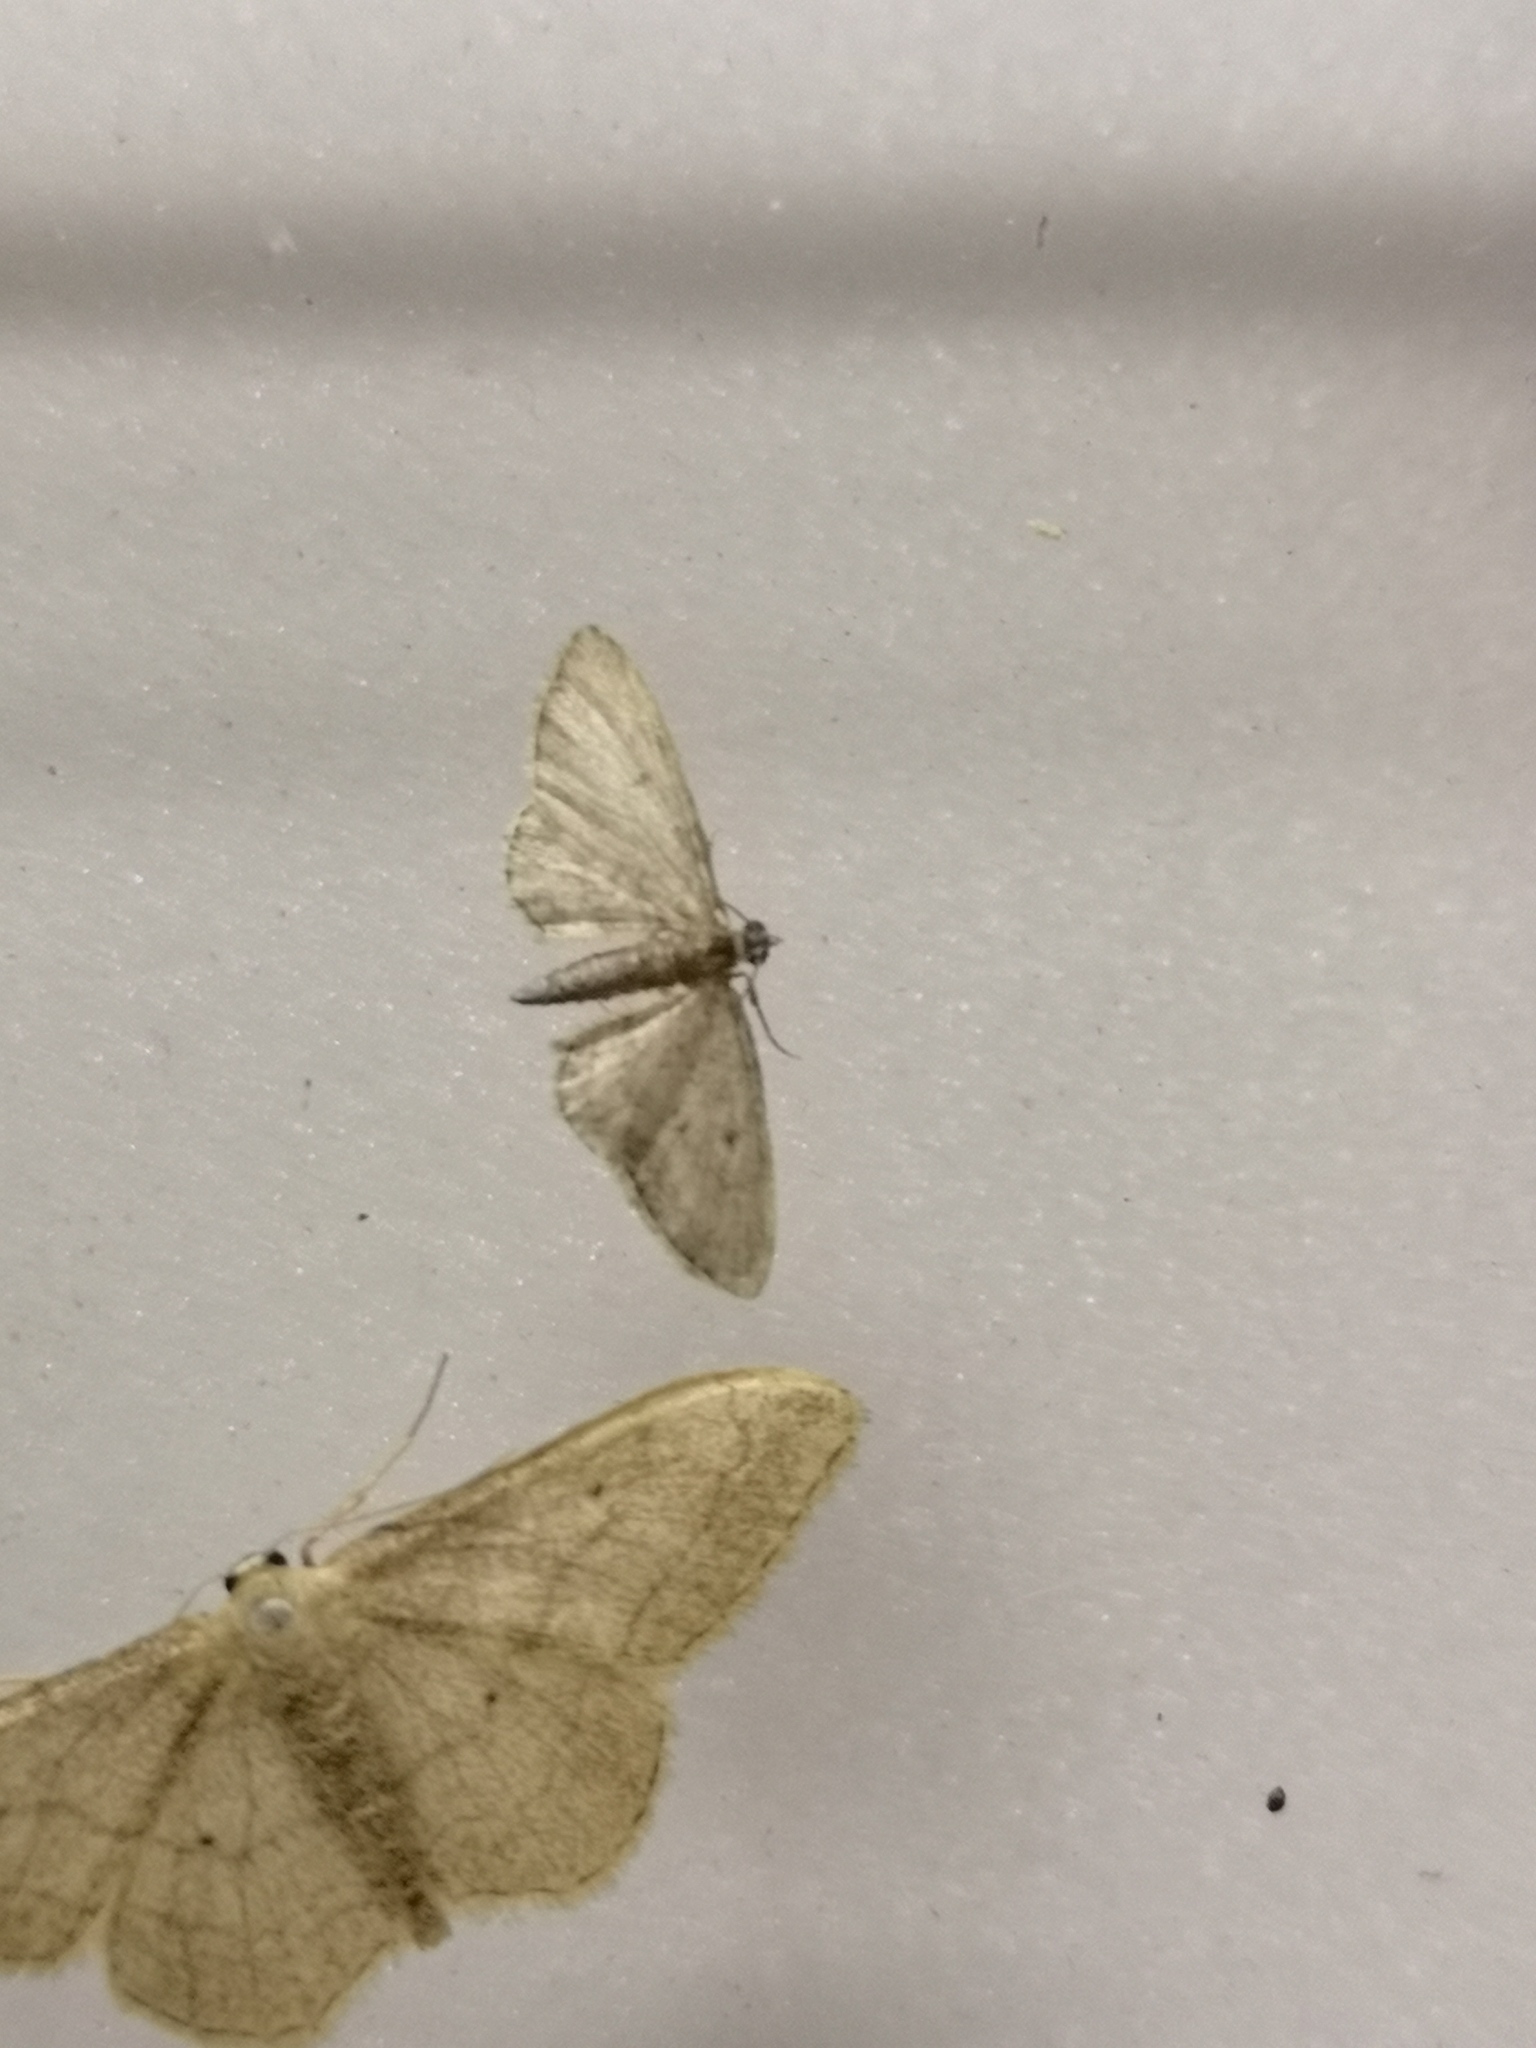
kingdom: Animalia
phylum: Arthropoda
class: Insecta
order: Lepidoptera
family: Geometridae
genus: Idaea
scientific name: Idaea aversata
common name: Riband wave
